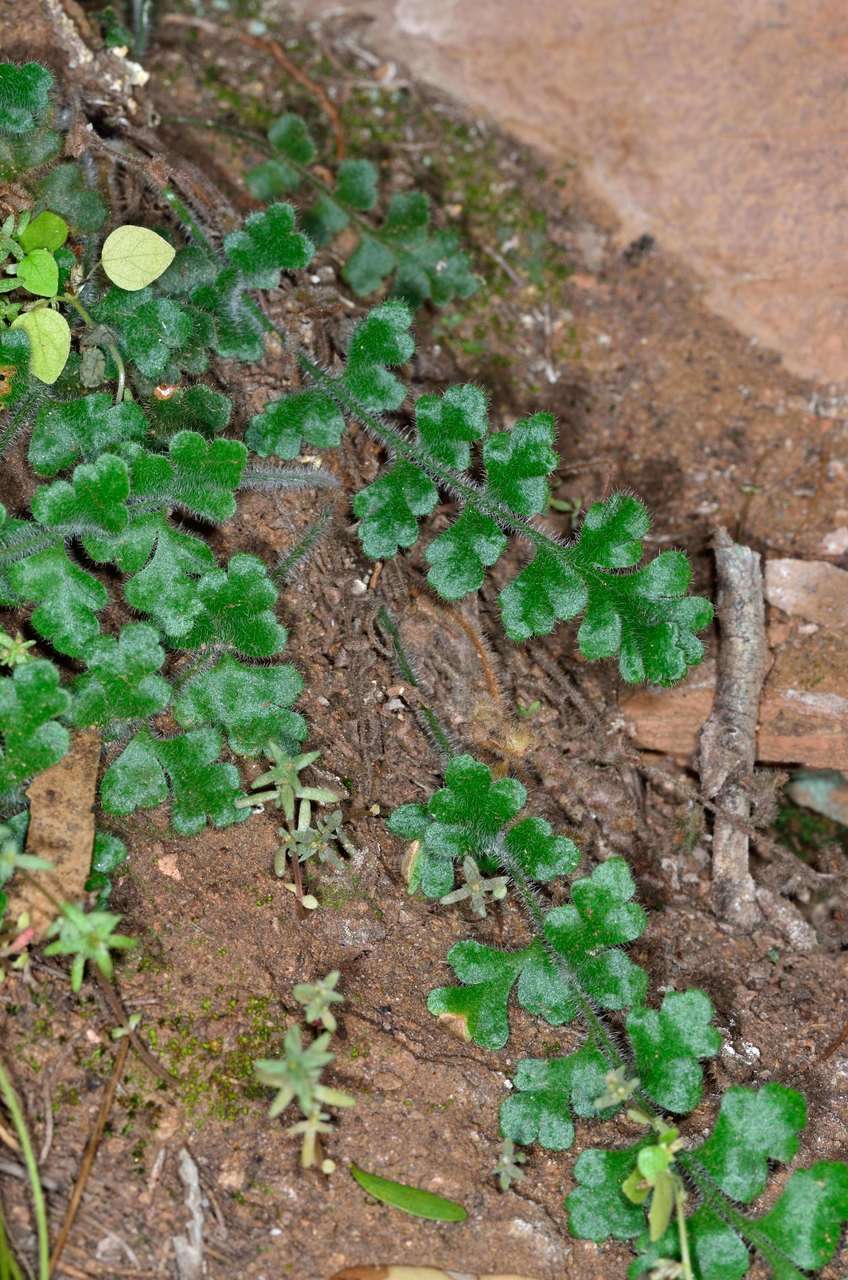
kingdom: Plantae
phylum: Tracheophyta
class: Polypodiopsida
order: Polypodiales
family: Aspleniaceae
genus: Asplenium
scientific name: Asplenium subglandulosum
